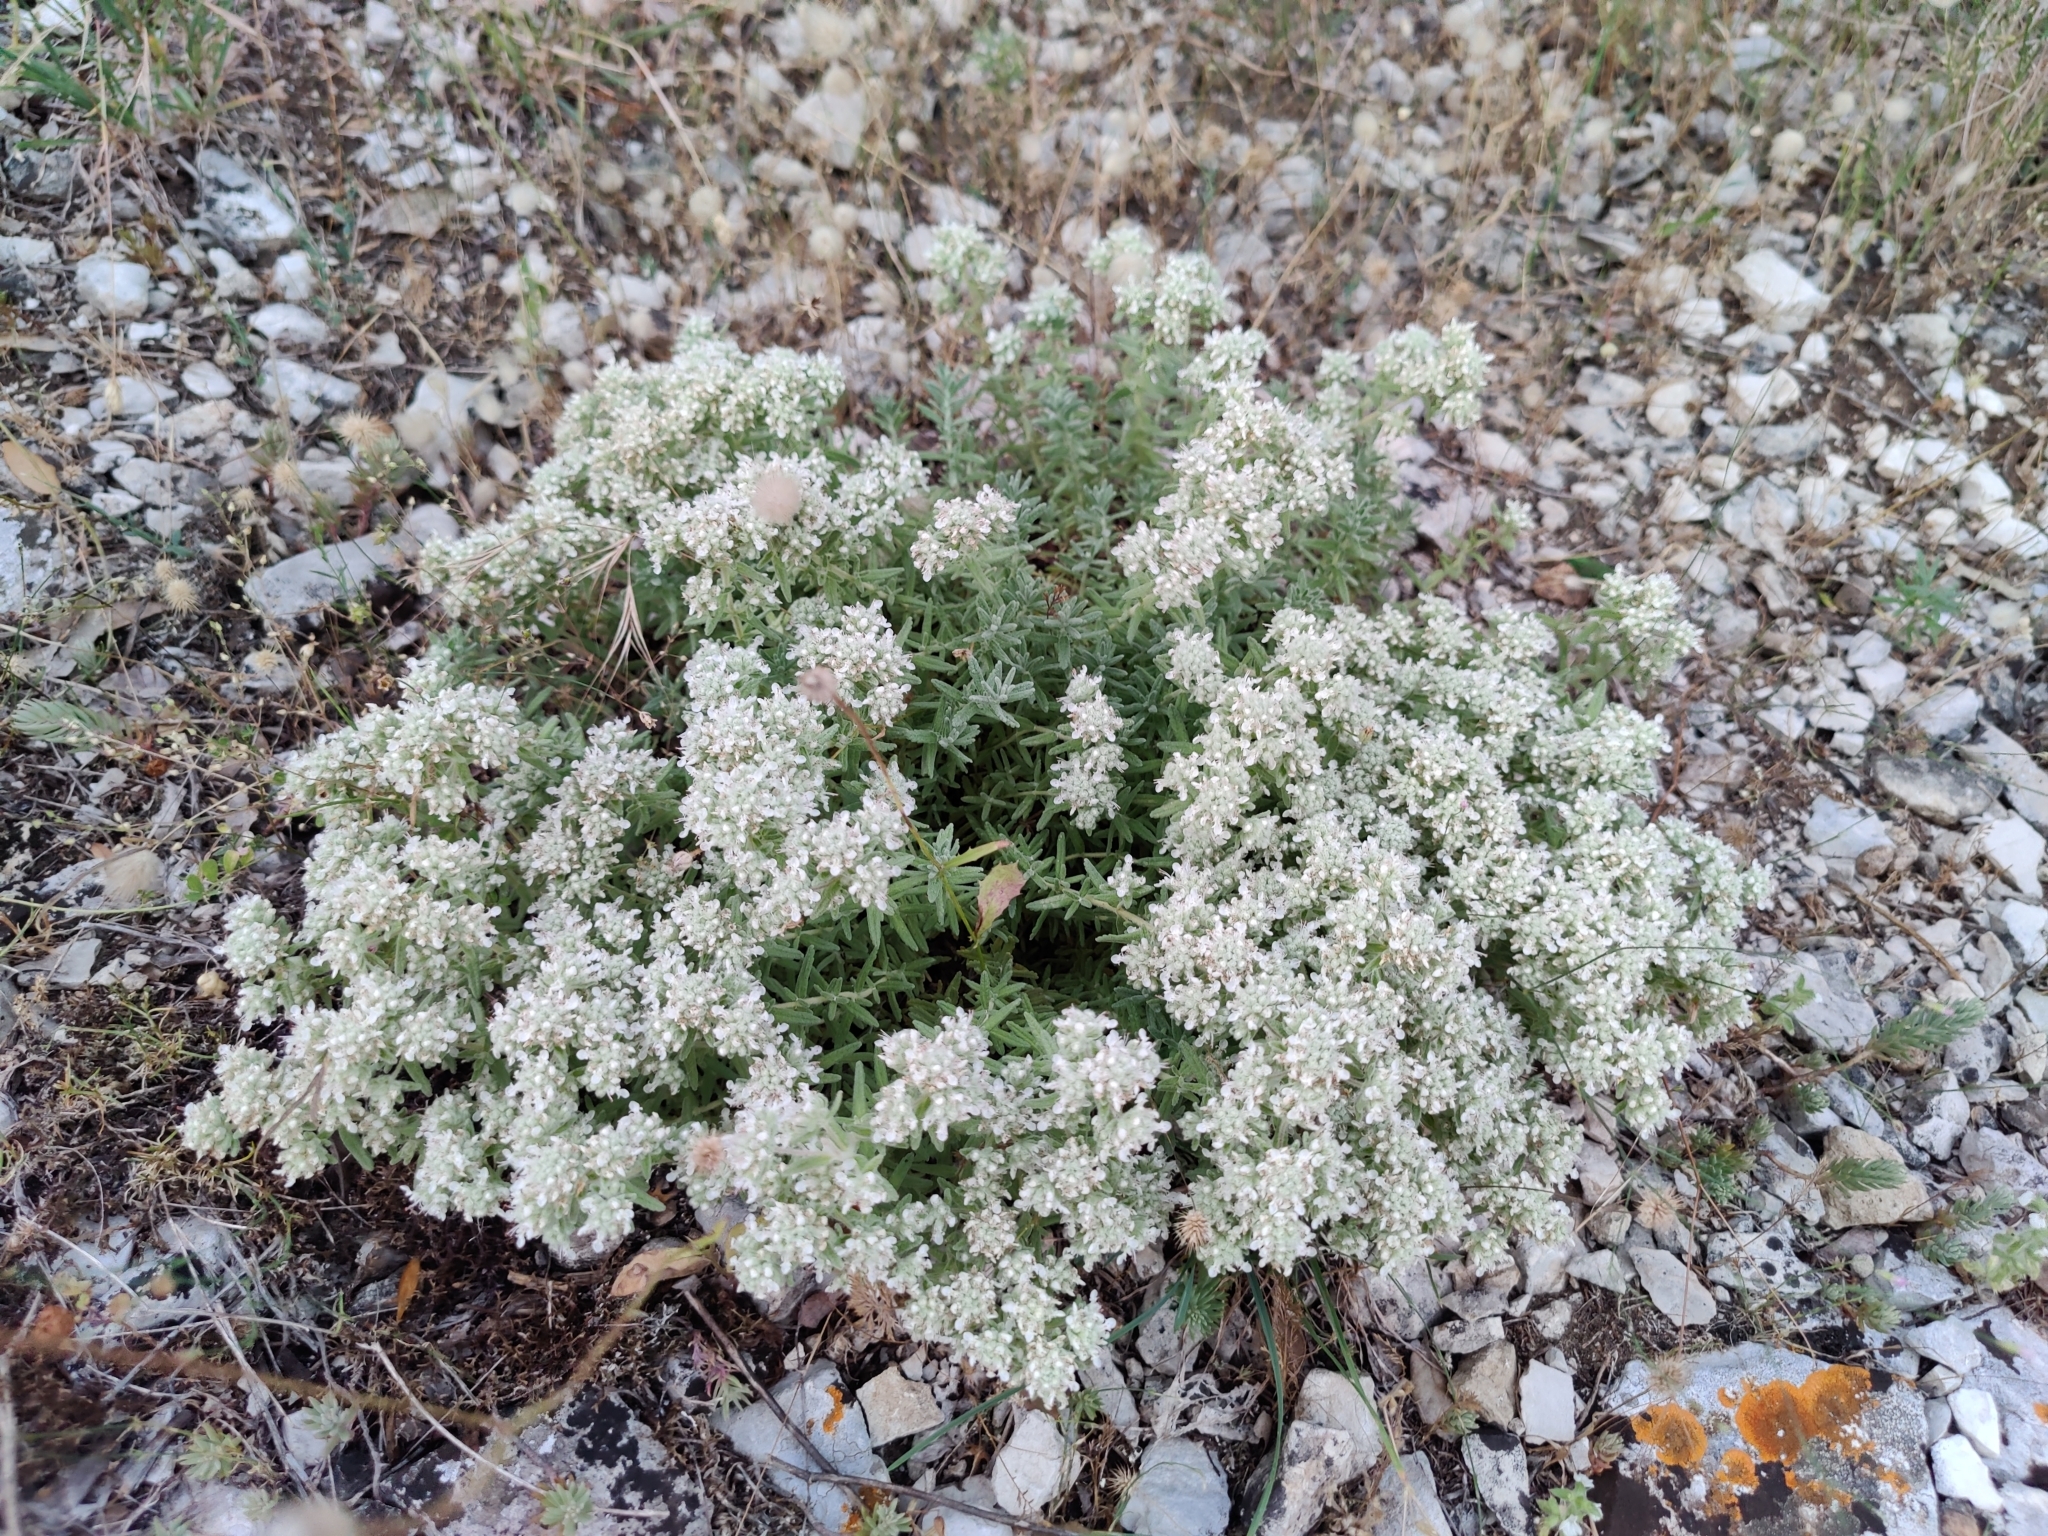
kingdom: Plantae
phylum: Tracheophyta
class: Magnoliopsida
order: Lamiales
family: Lamiaceae
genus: Teucrium
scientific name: Teucrium capitatum
